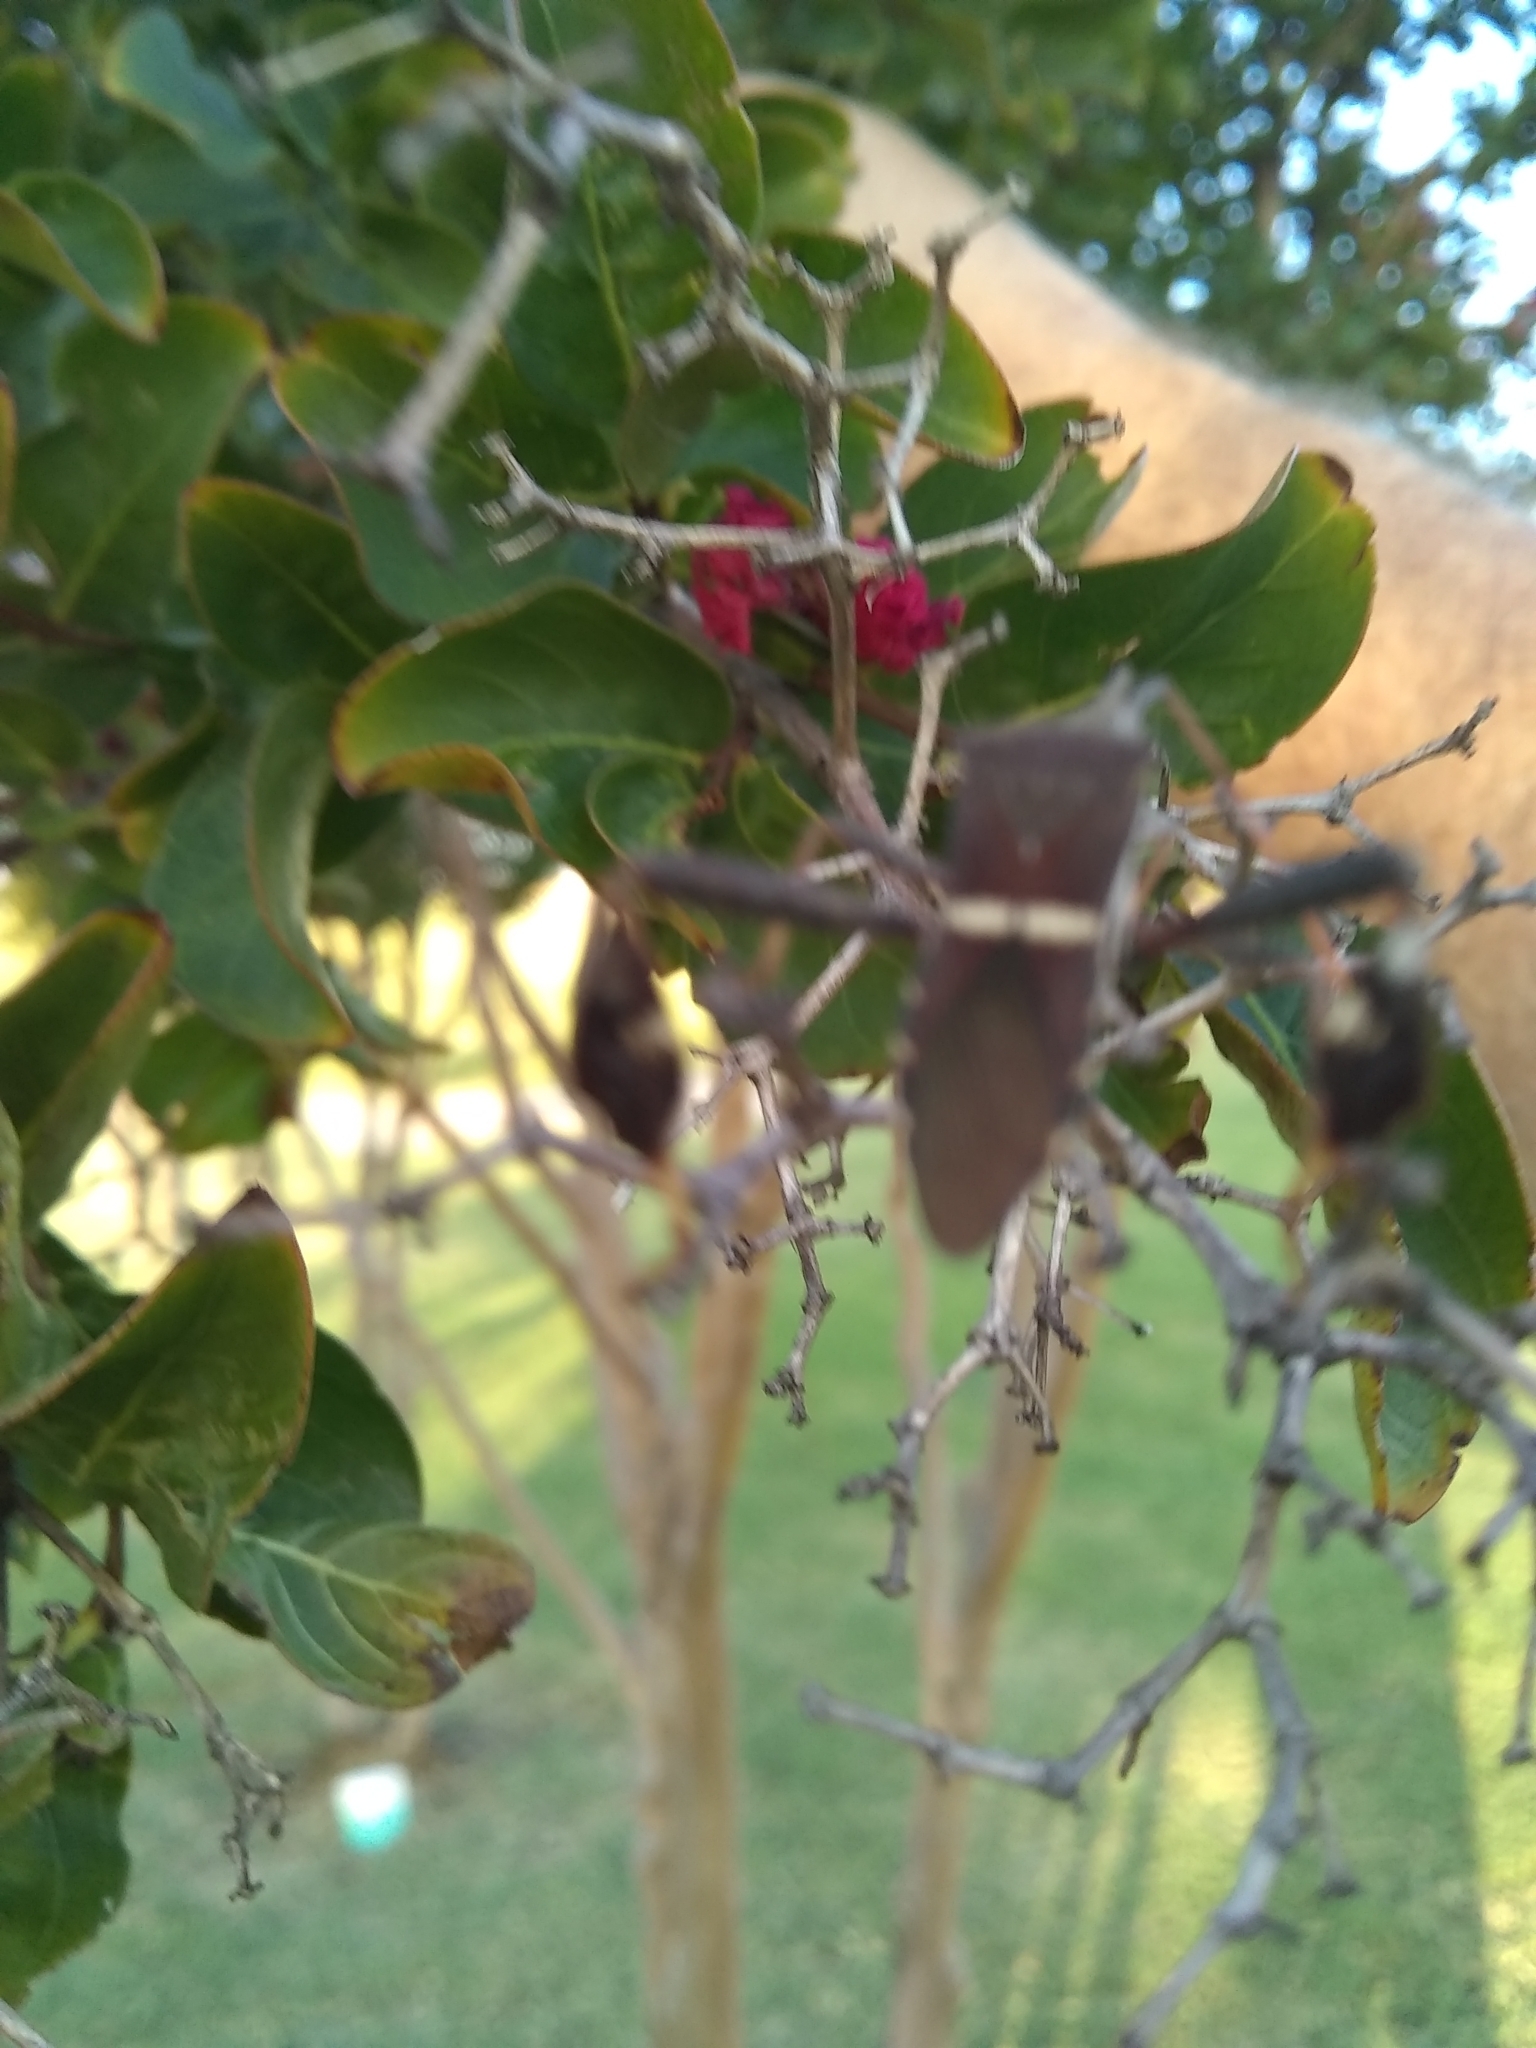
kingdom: Animalia
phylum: Arthropoda
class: Insecta
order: Hemiptera
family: Coreidae
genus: Leptoglossus
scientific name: Leptoglossus phyllopus
